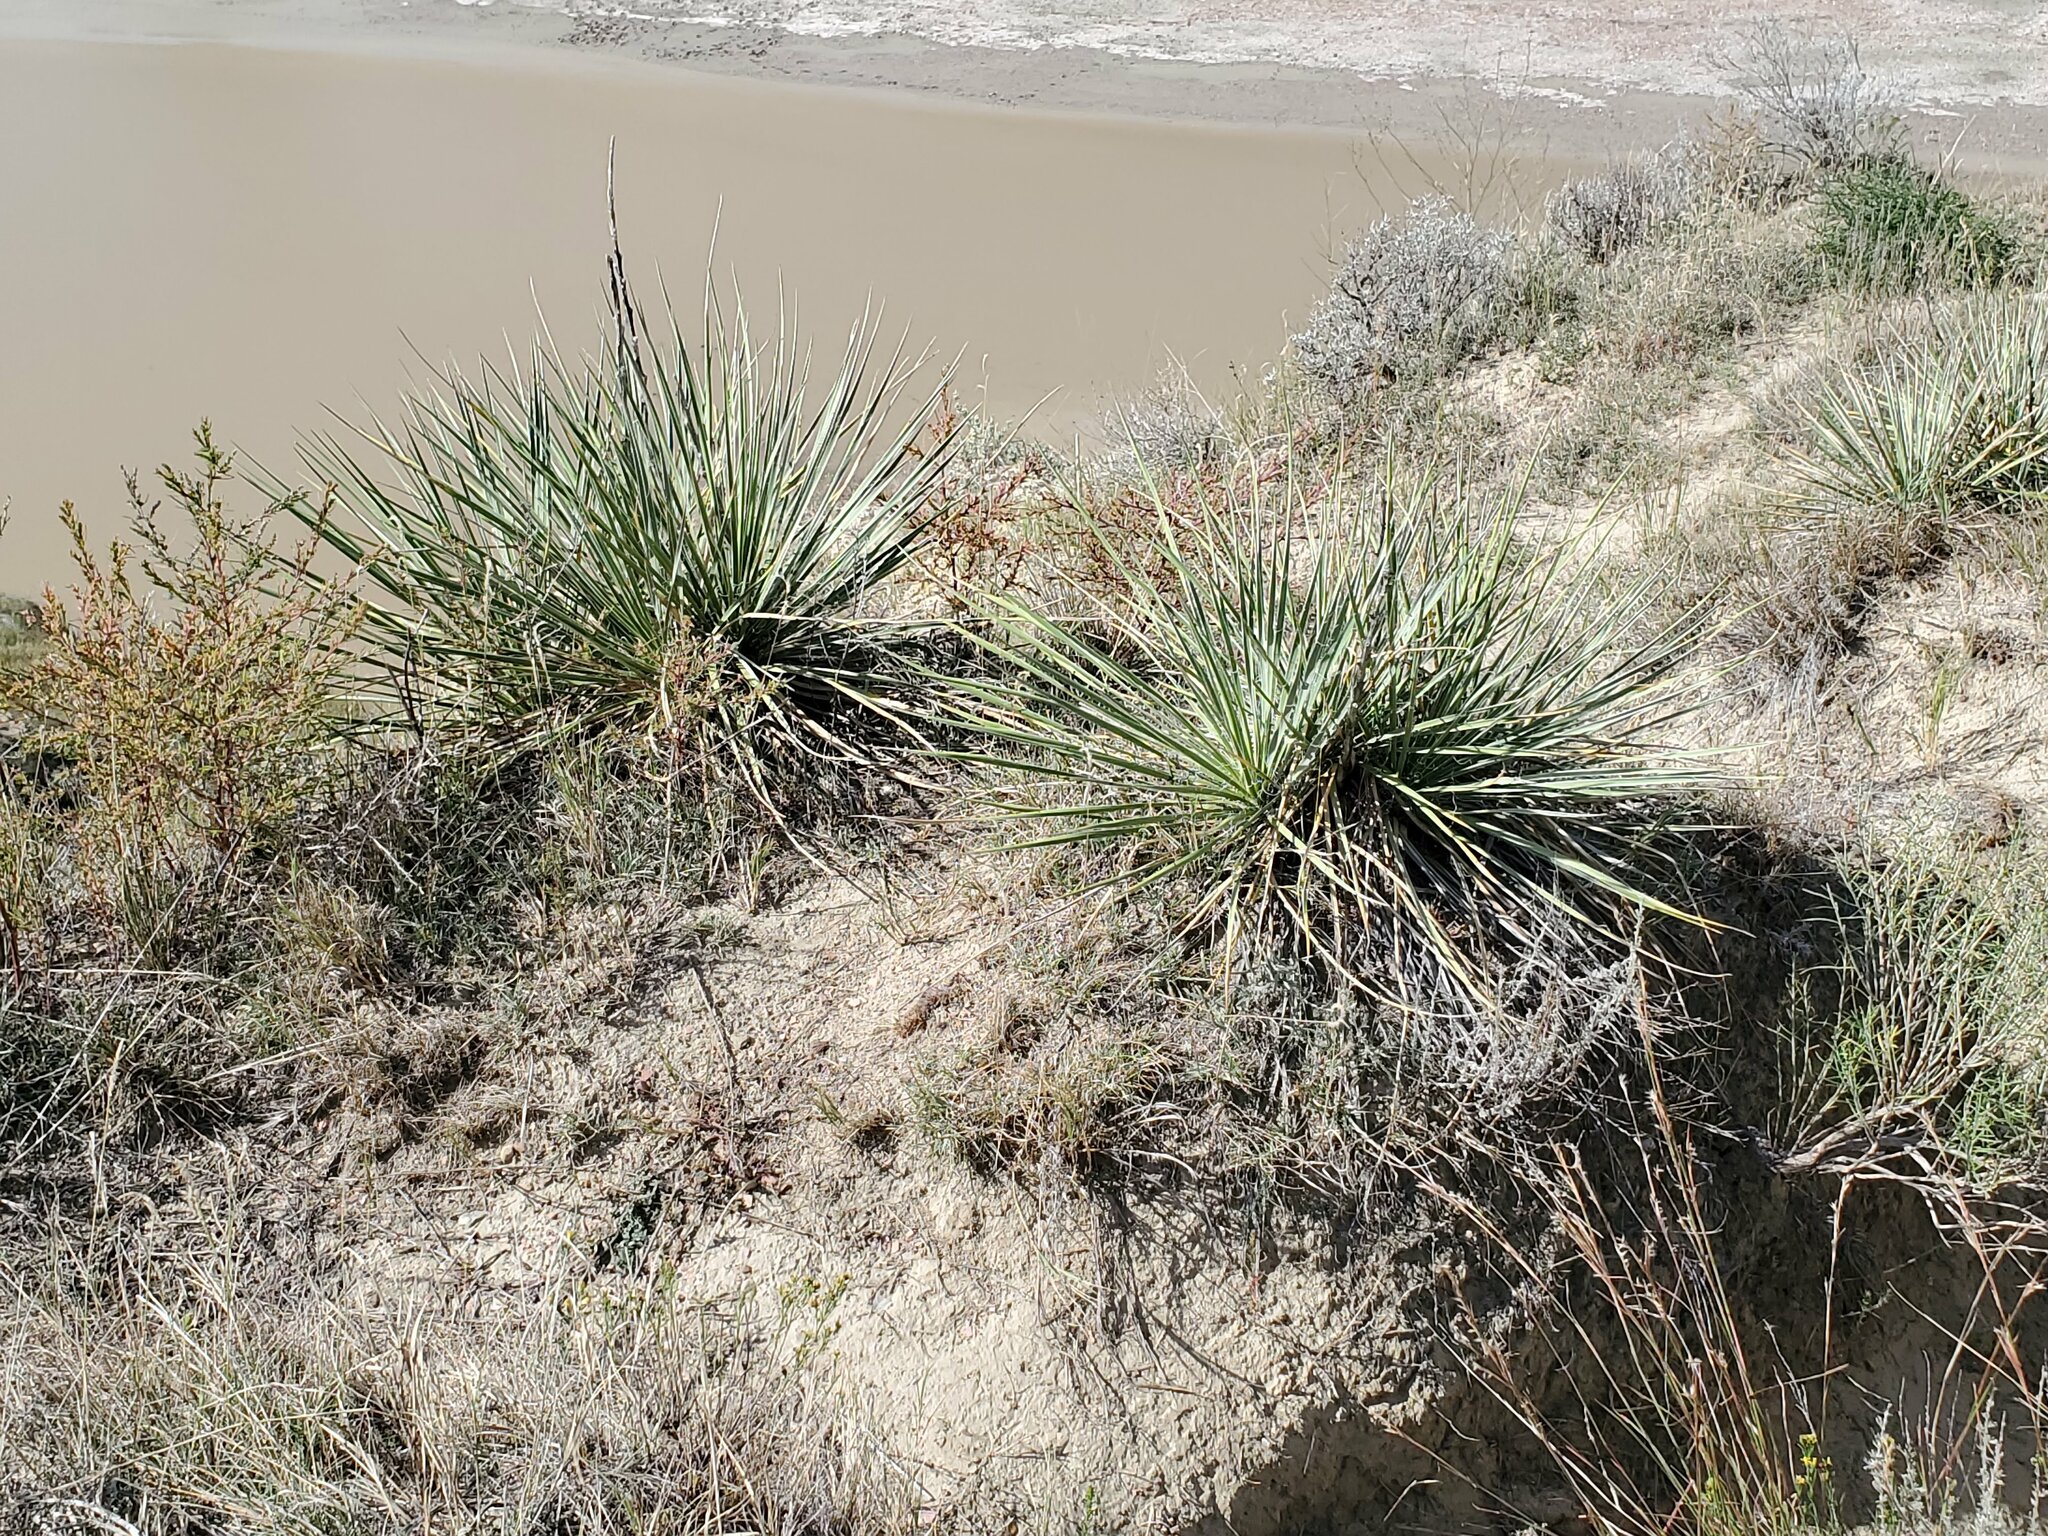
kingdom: Plantae
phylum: Tracheophyta
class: Liliopsida
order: Asparagales
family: Asparagaceae
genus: Yucca
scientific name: Yucca glauca
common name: Great plains yucca
